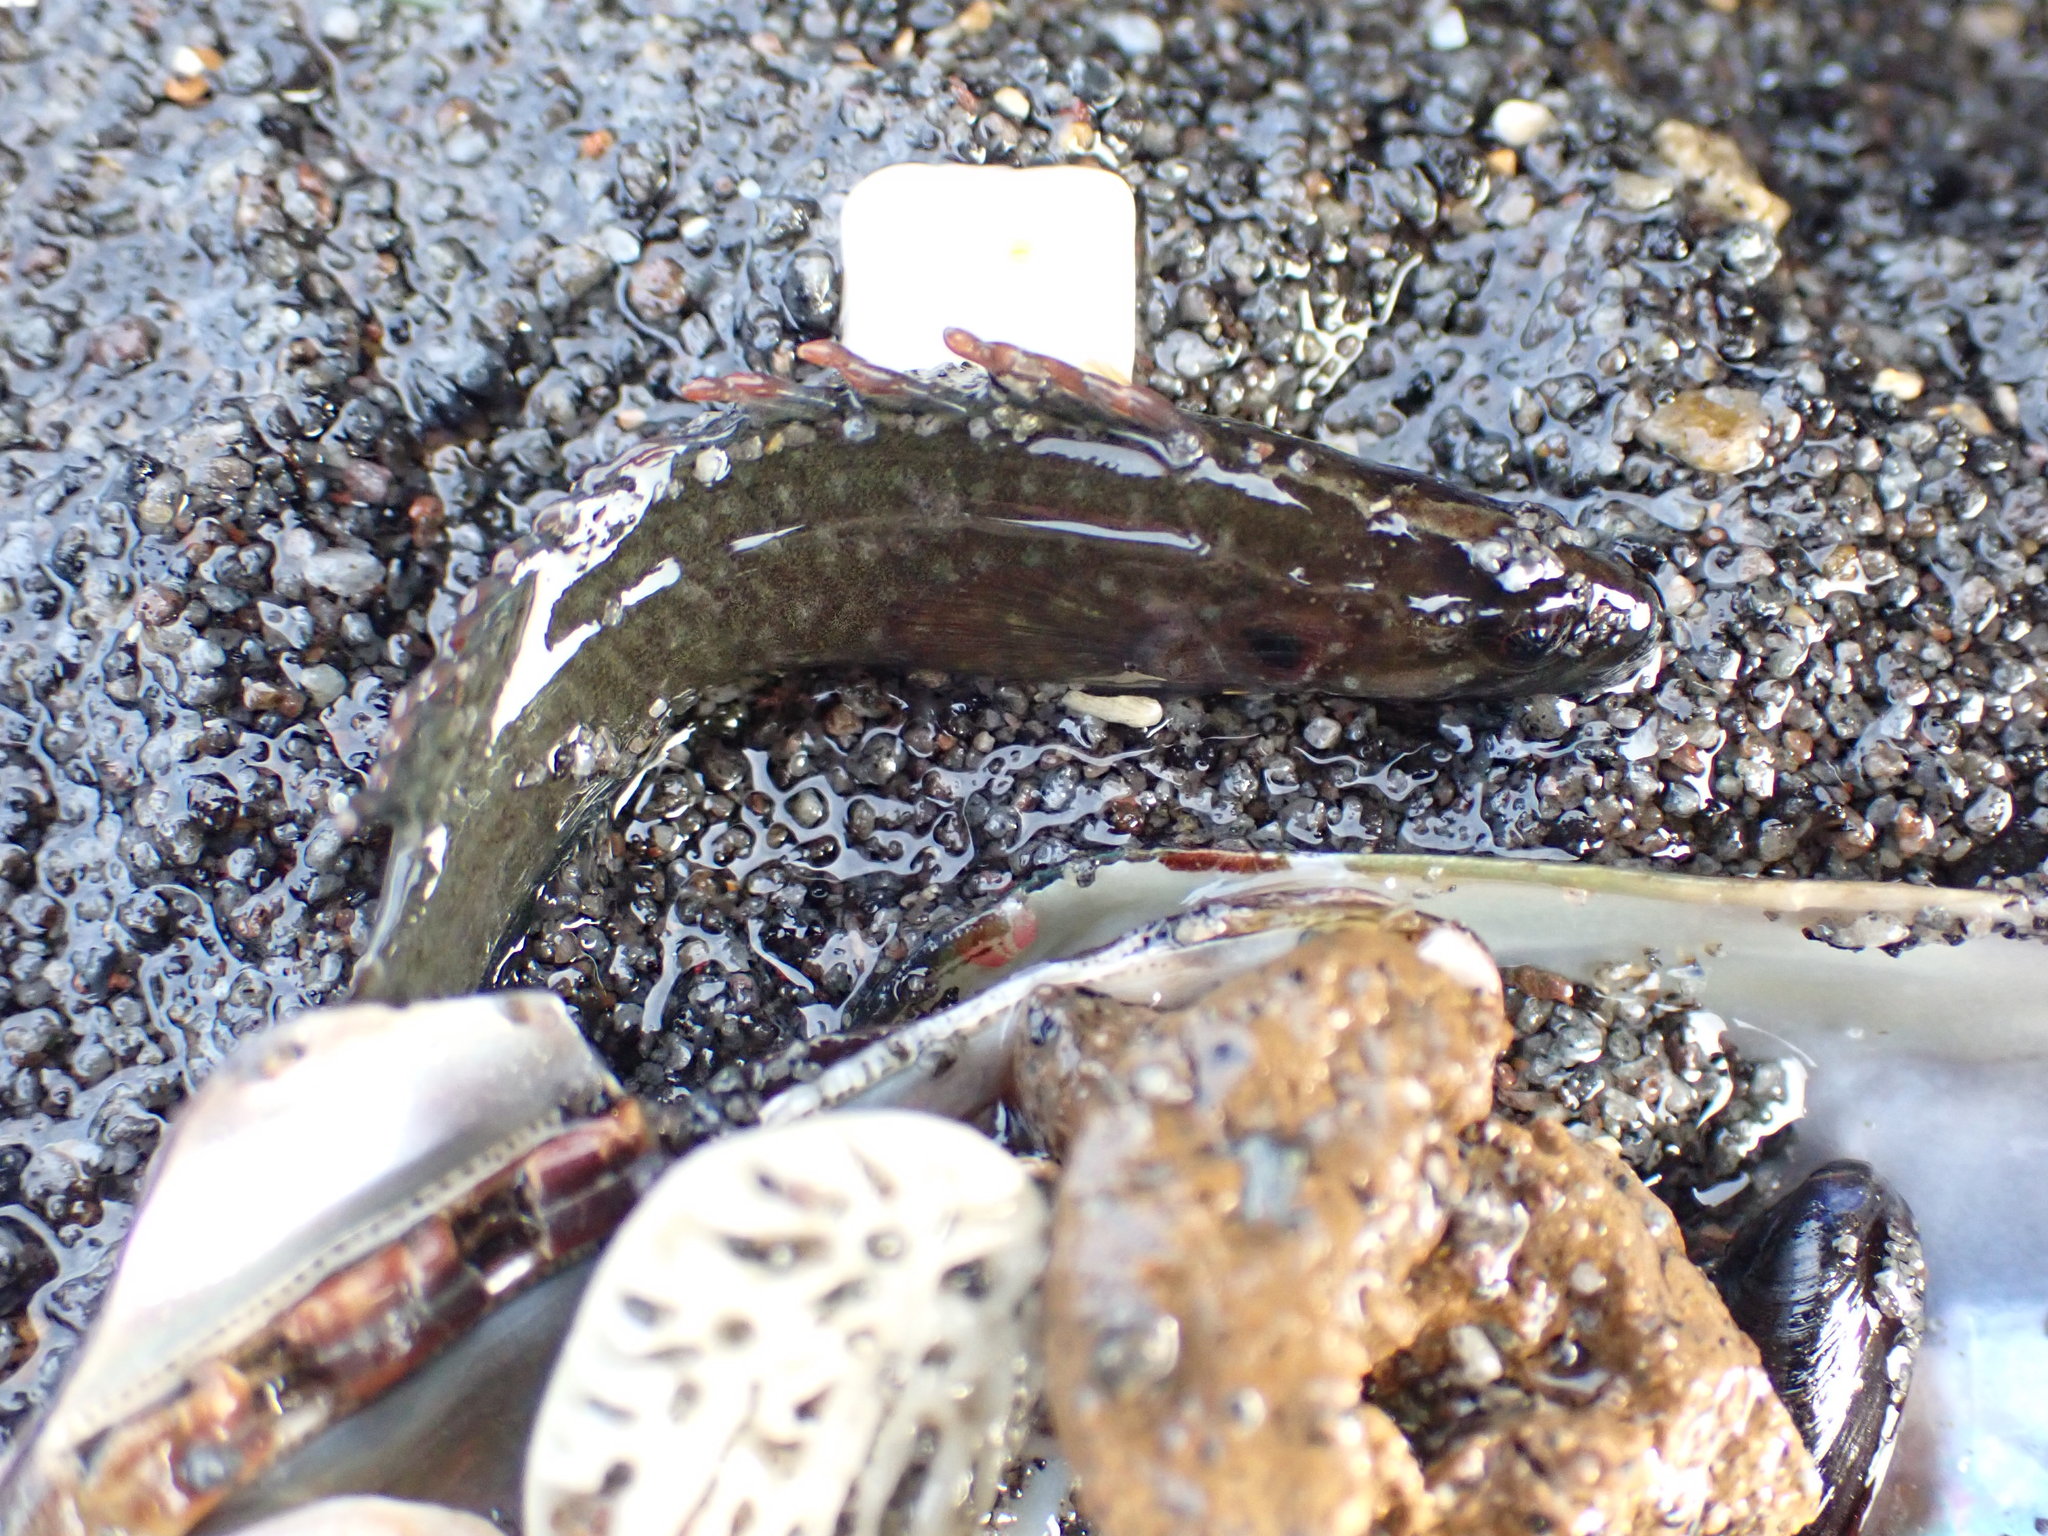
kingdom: Animalia
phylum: Chordata
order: Perciformes
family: Plesiopidae
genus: Acanthoclinus
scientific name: Acanthoclinus fuscus
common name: Olive rockfish
